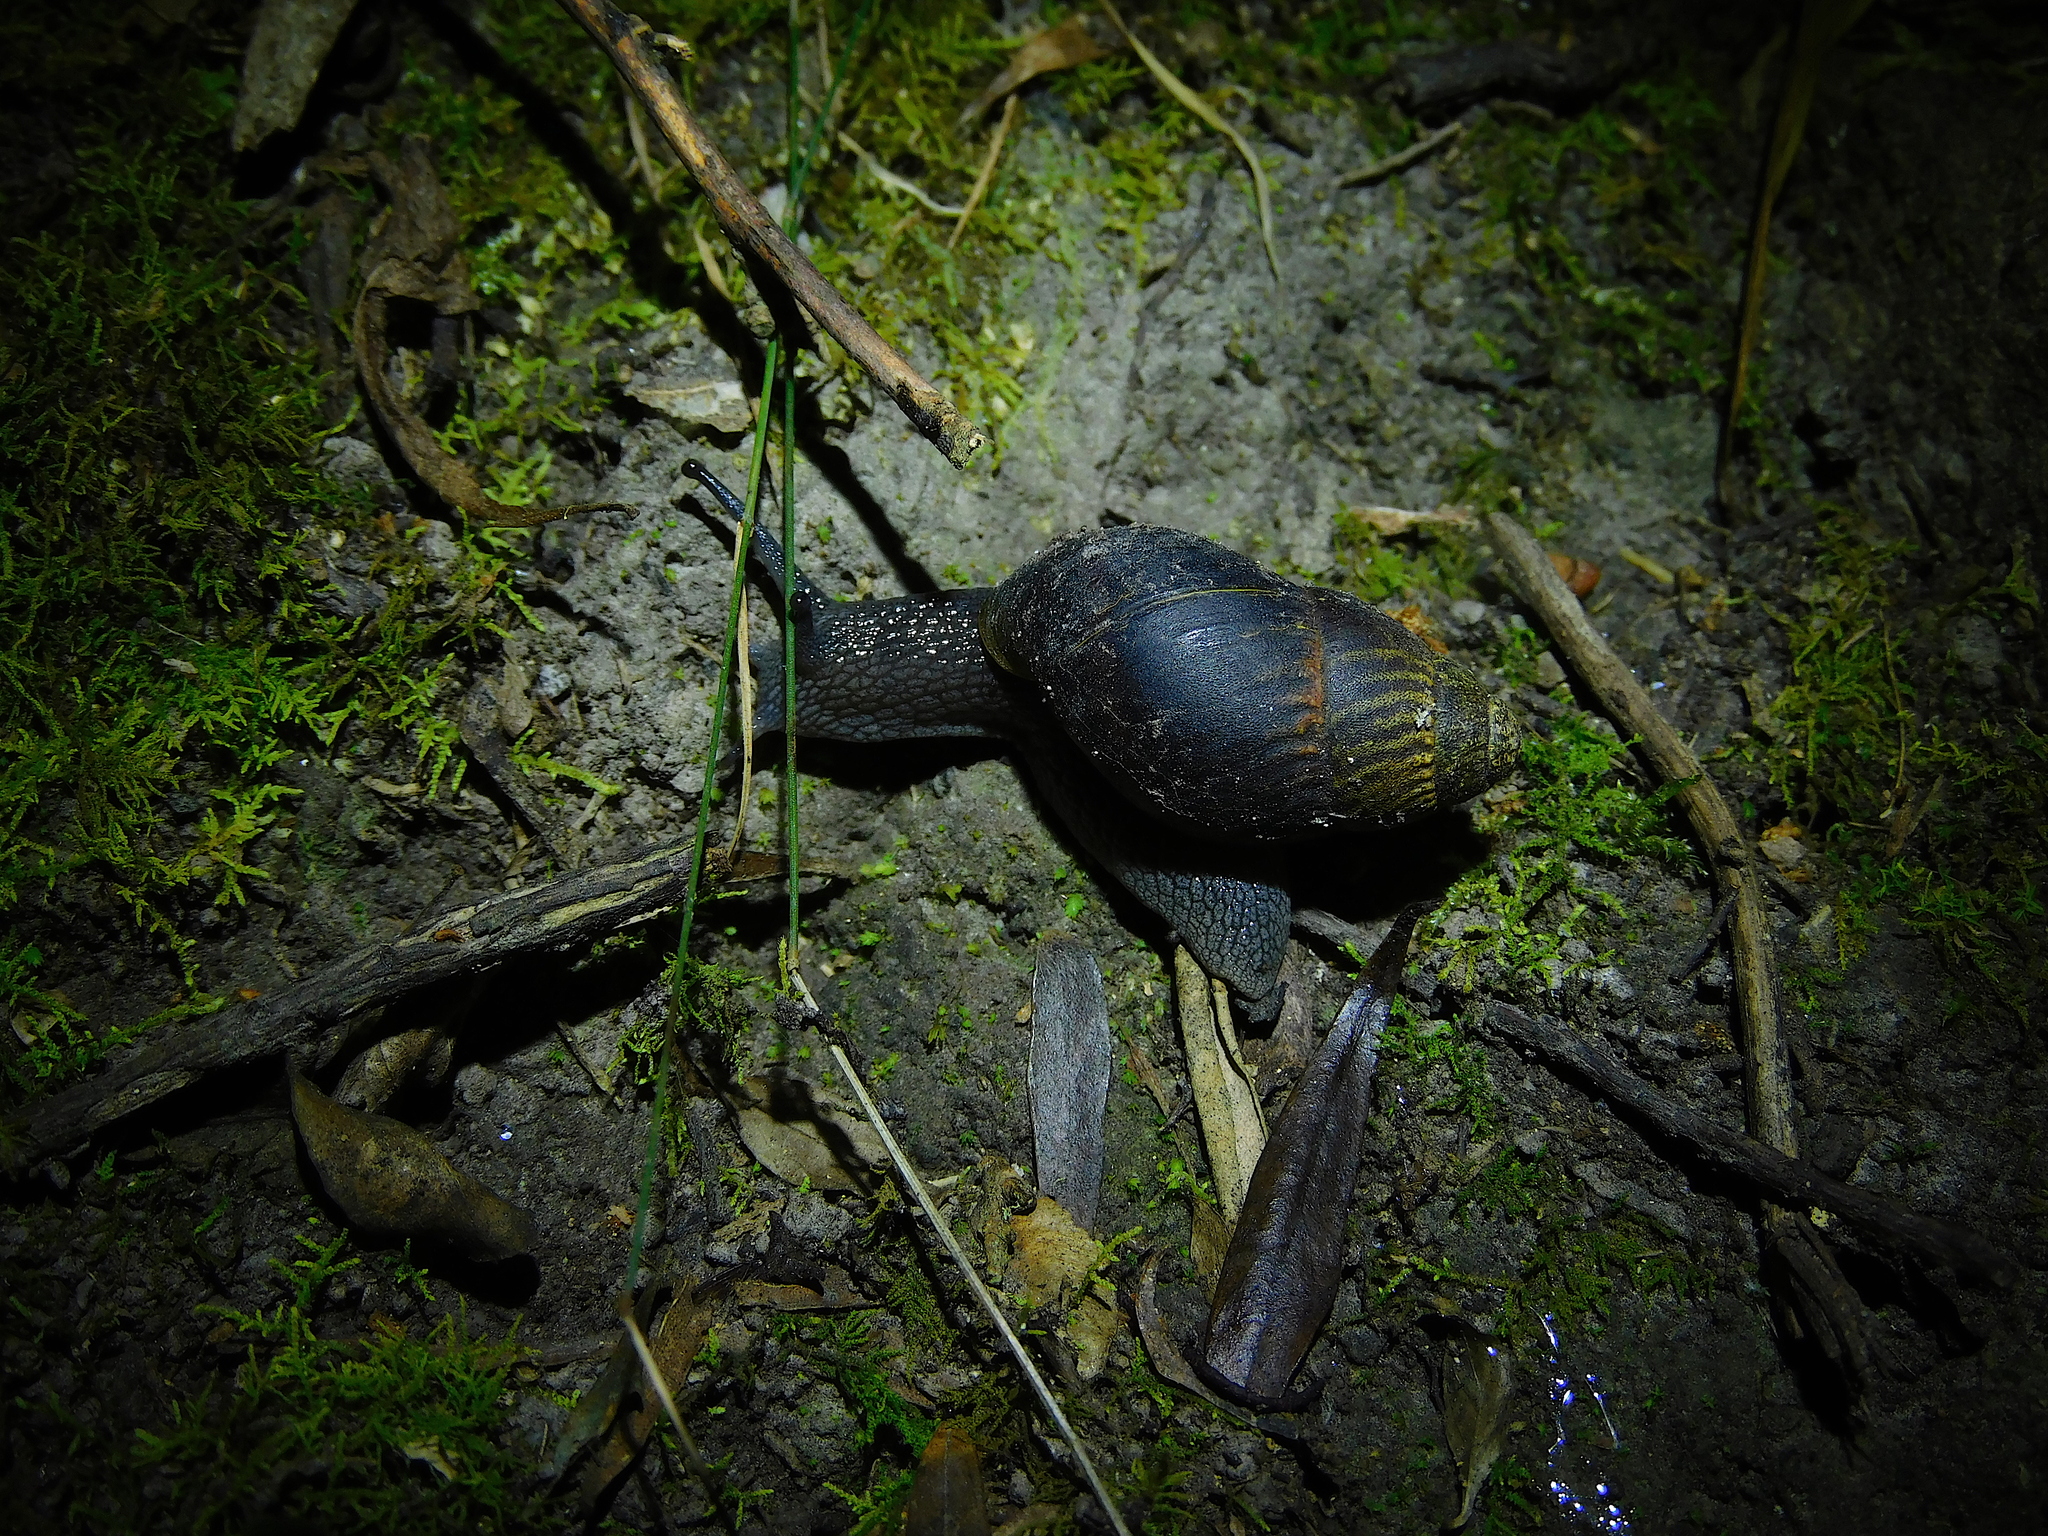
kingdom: Animalia
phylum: Mollusca
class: Gastropoda
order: Stylommatophora
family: Caryodidae
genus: Caryodes
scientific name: Caryodes dufresnii
